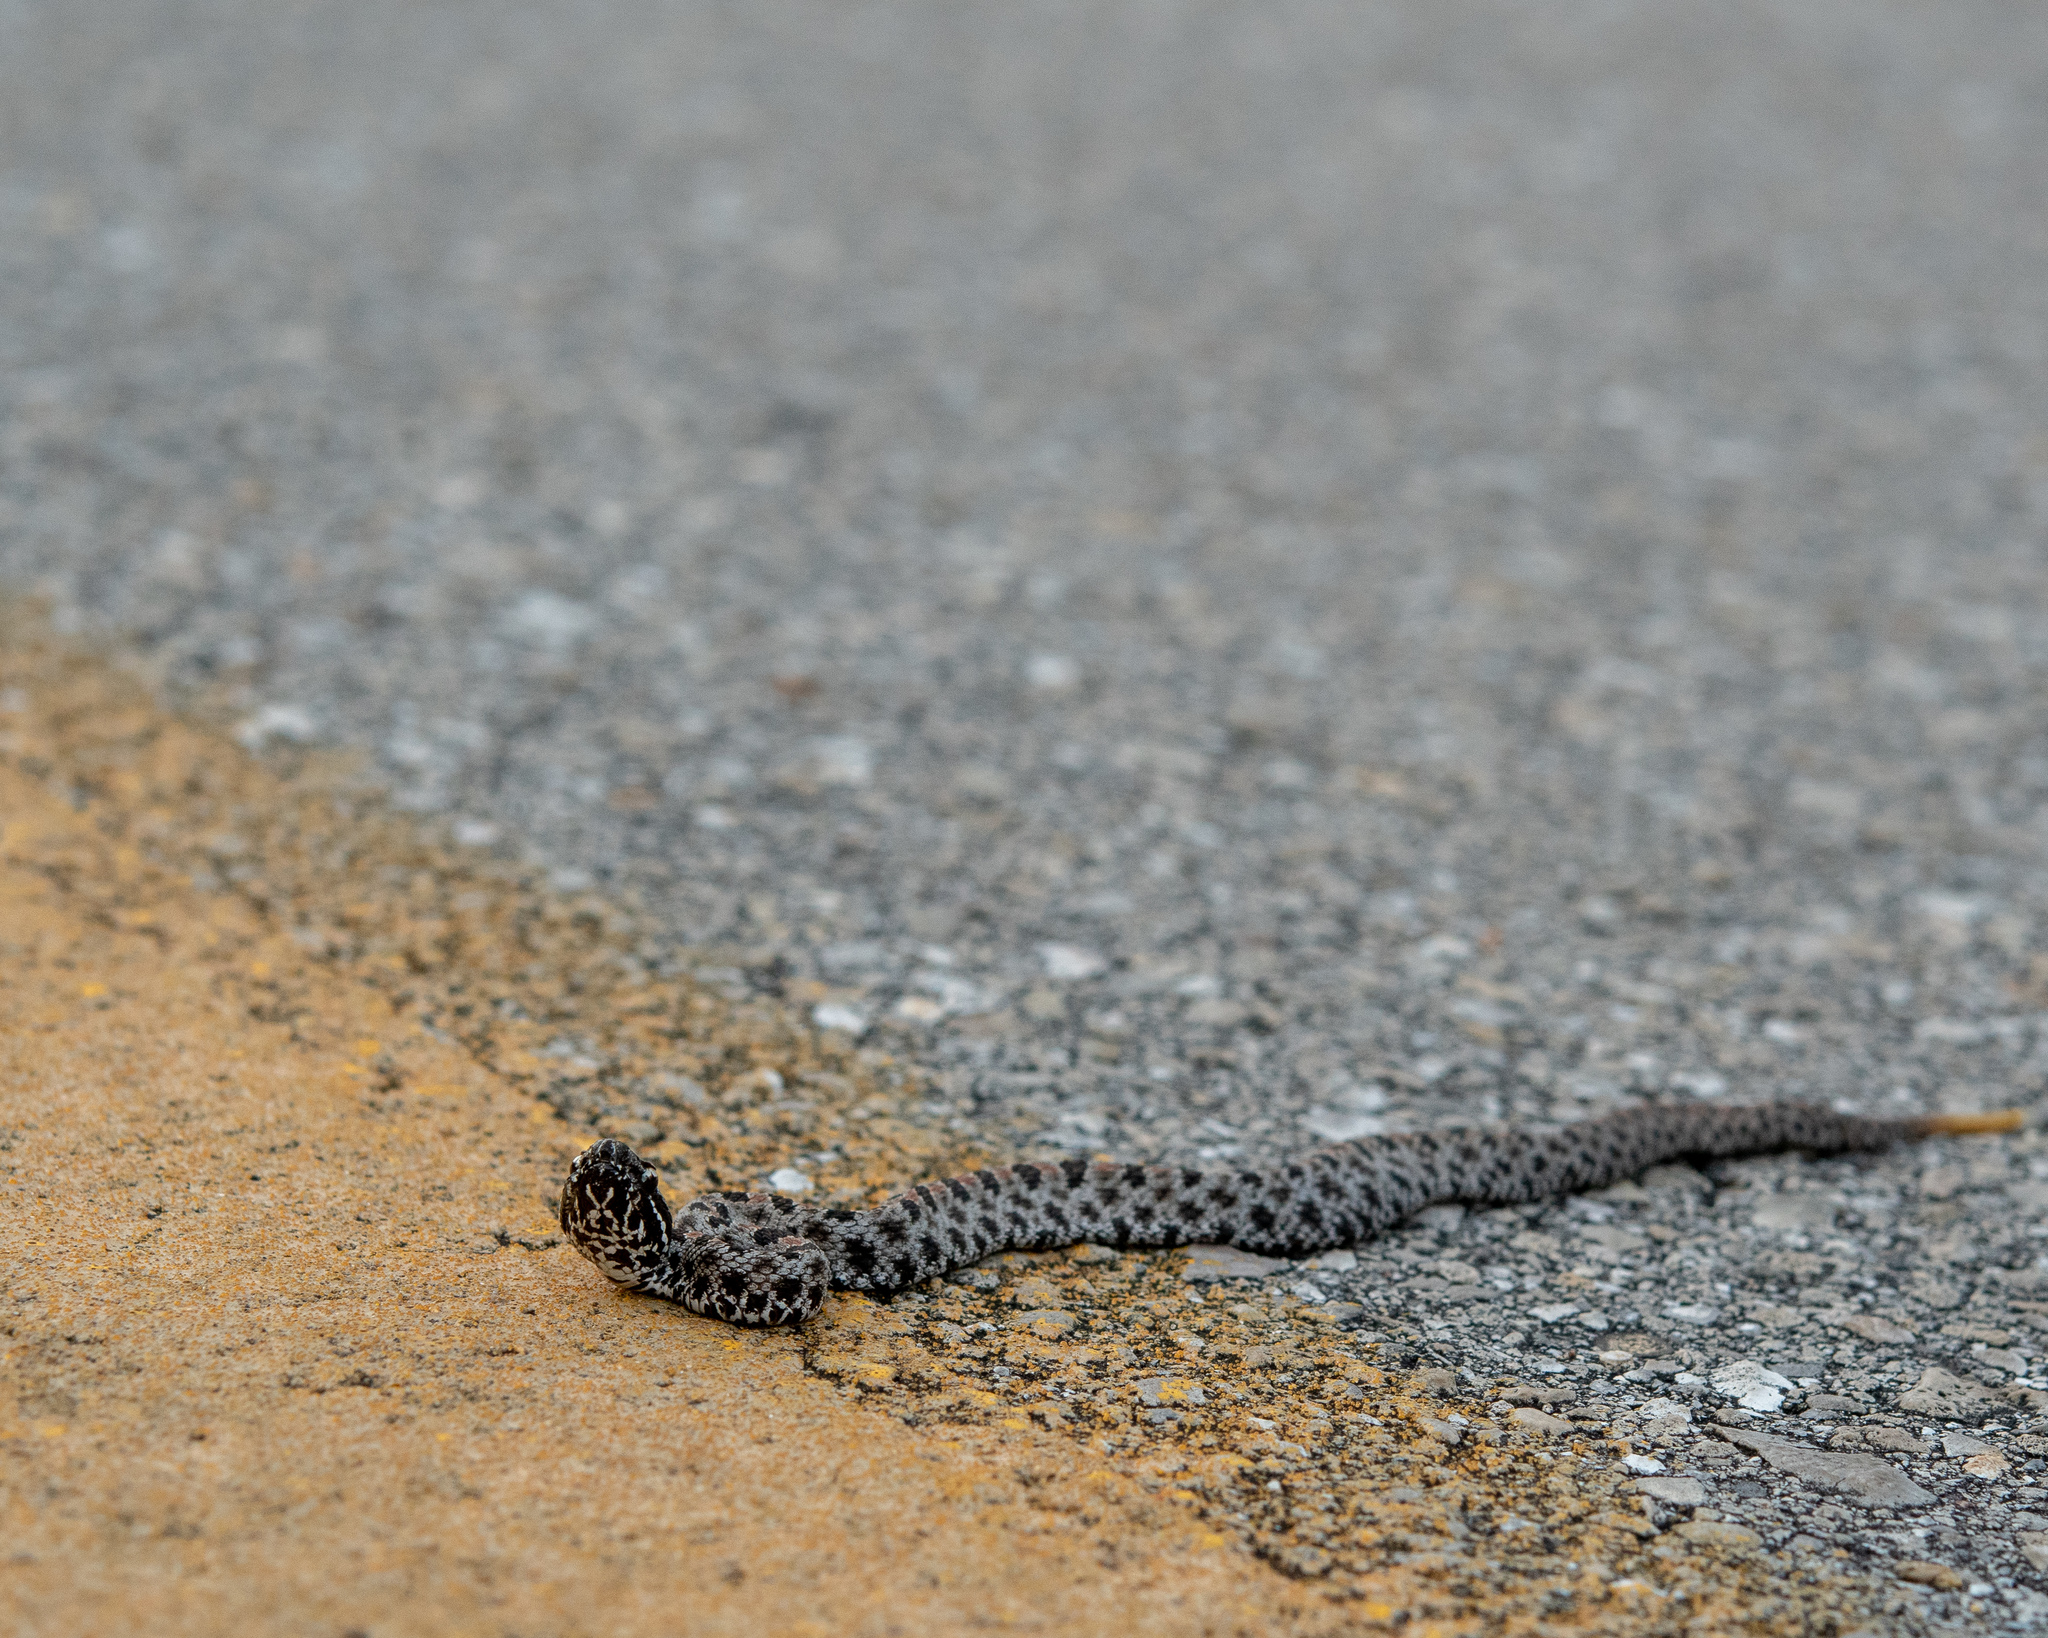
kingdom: Animalia
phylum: Chordata
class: Squamata
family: Viperidae
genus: Sistrurus
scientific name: Sistrurus miliarius
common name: Pygmy rattlesnake
